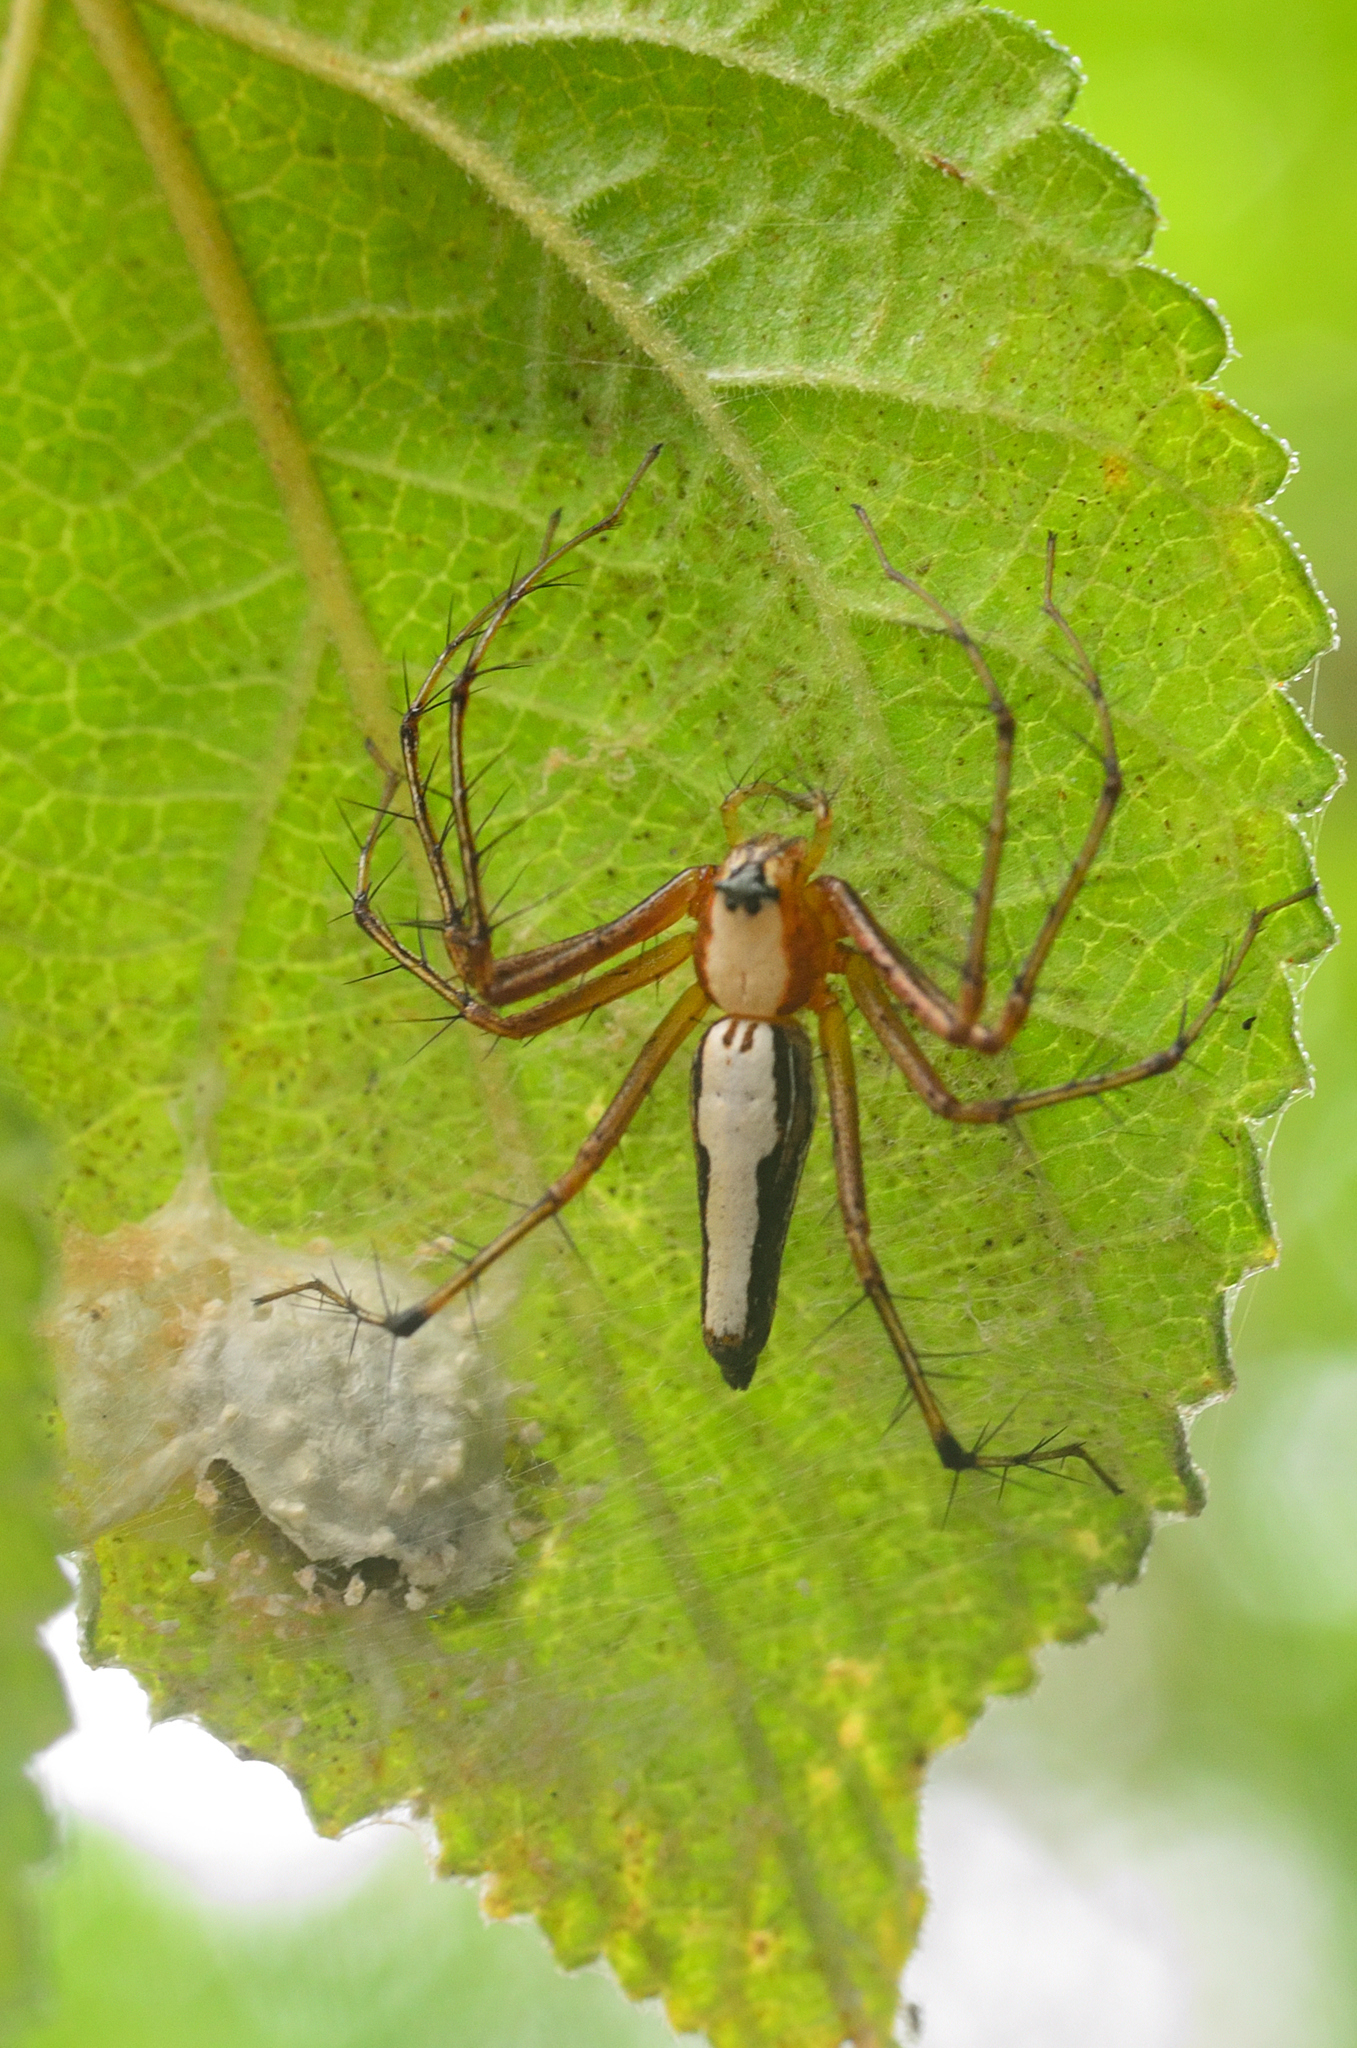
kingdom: Animalia
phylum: Arthropoda
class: Arachnida
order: Araneae
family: Oxyopidae
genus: Oxyopes
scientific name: Oxyopes shweta
